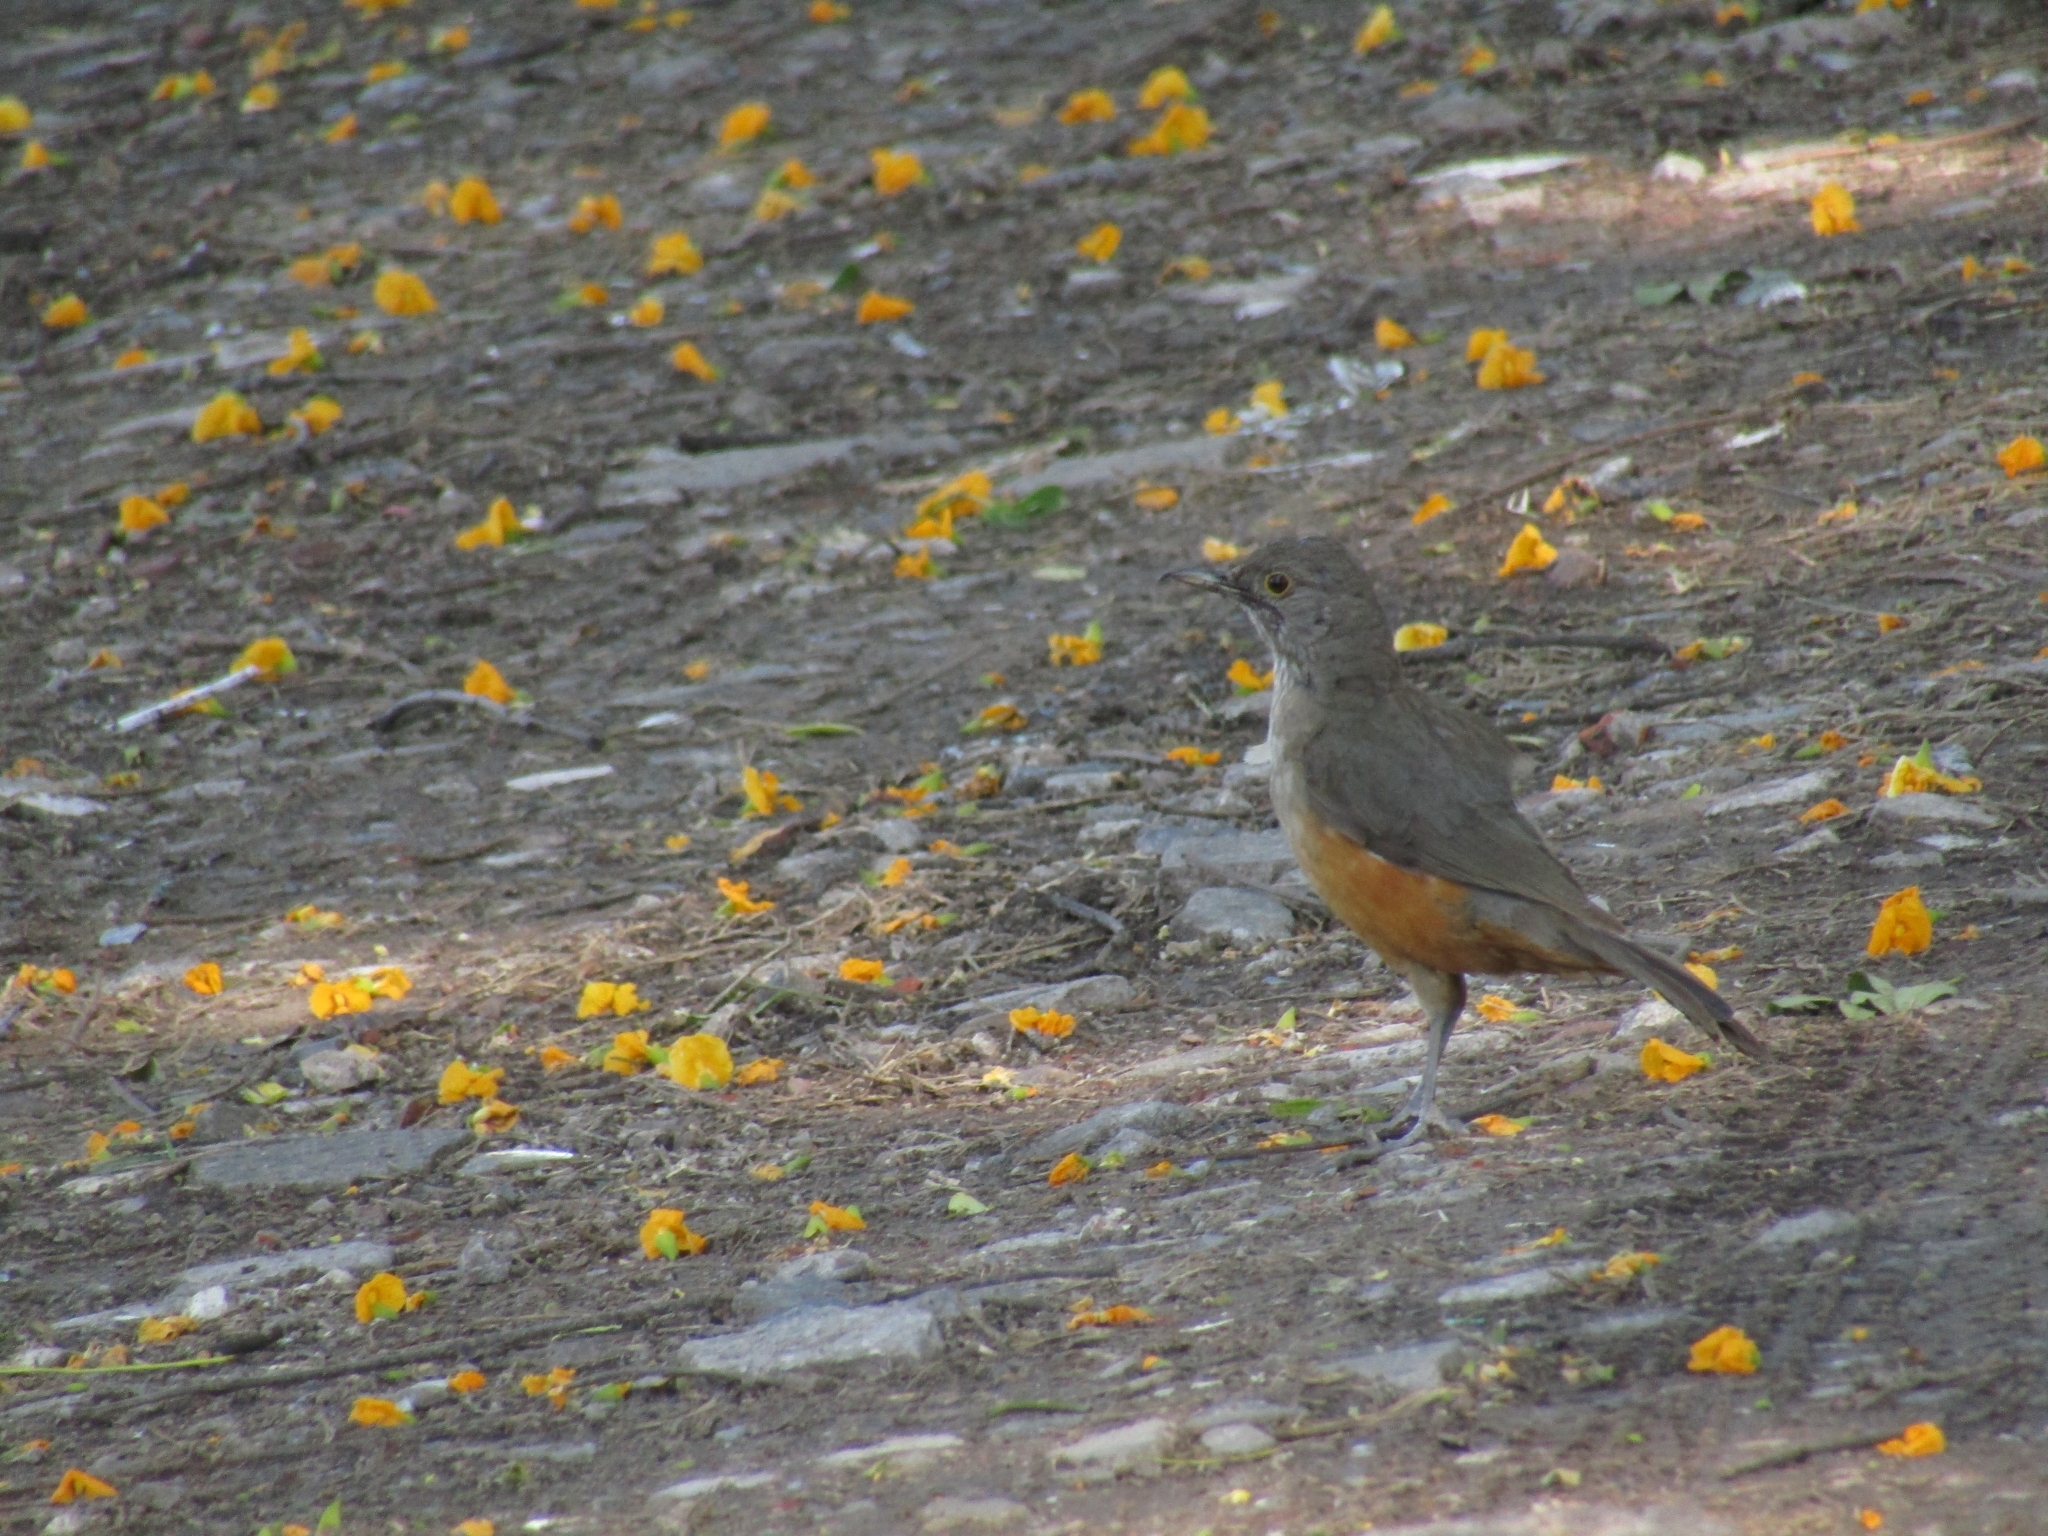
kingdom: Animalia
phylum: Chordata
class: Aves
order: Passeriformes
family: Turdidae
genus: Turdus
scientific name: Turdus rufiventris
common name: Rufous-bellied thrush
